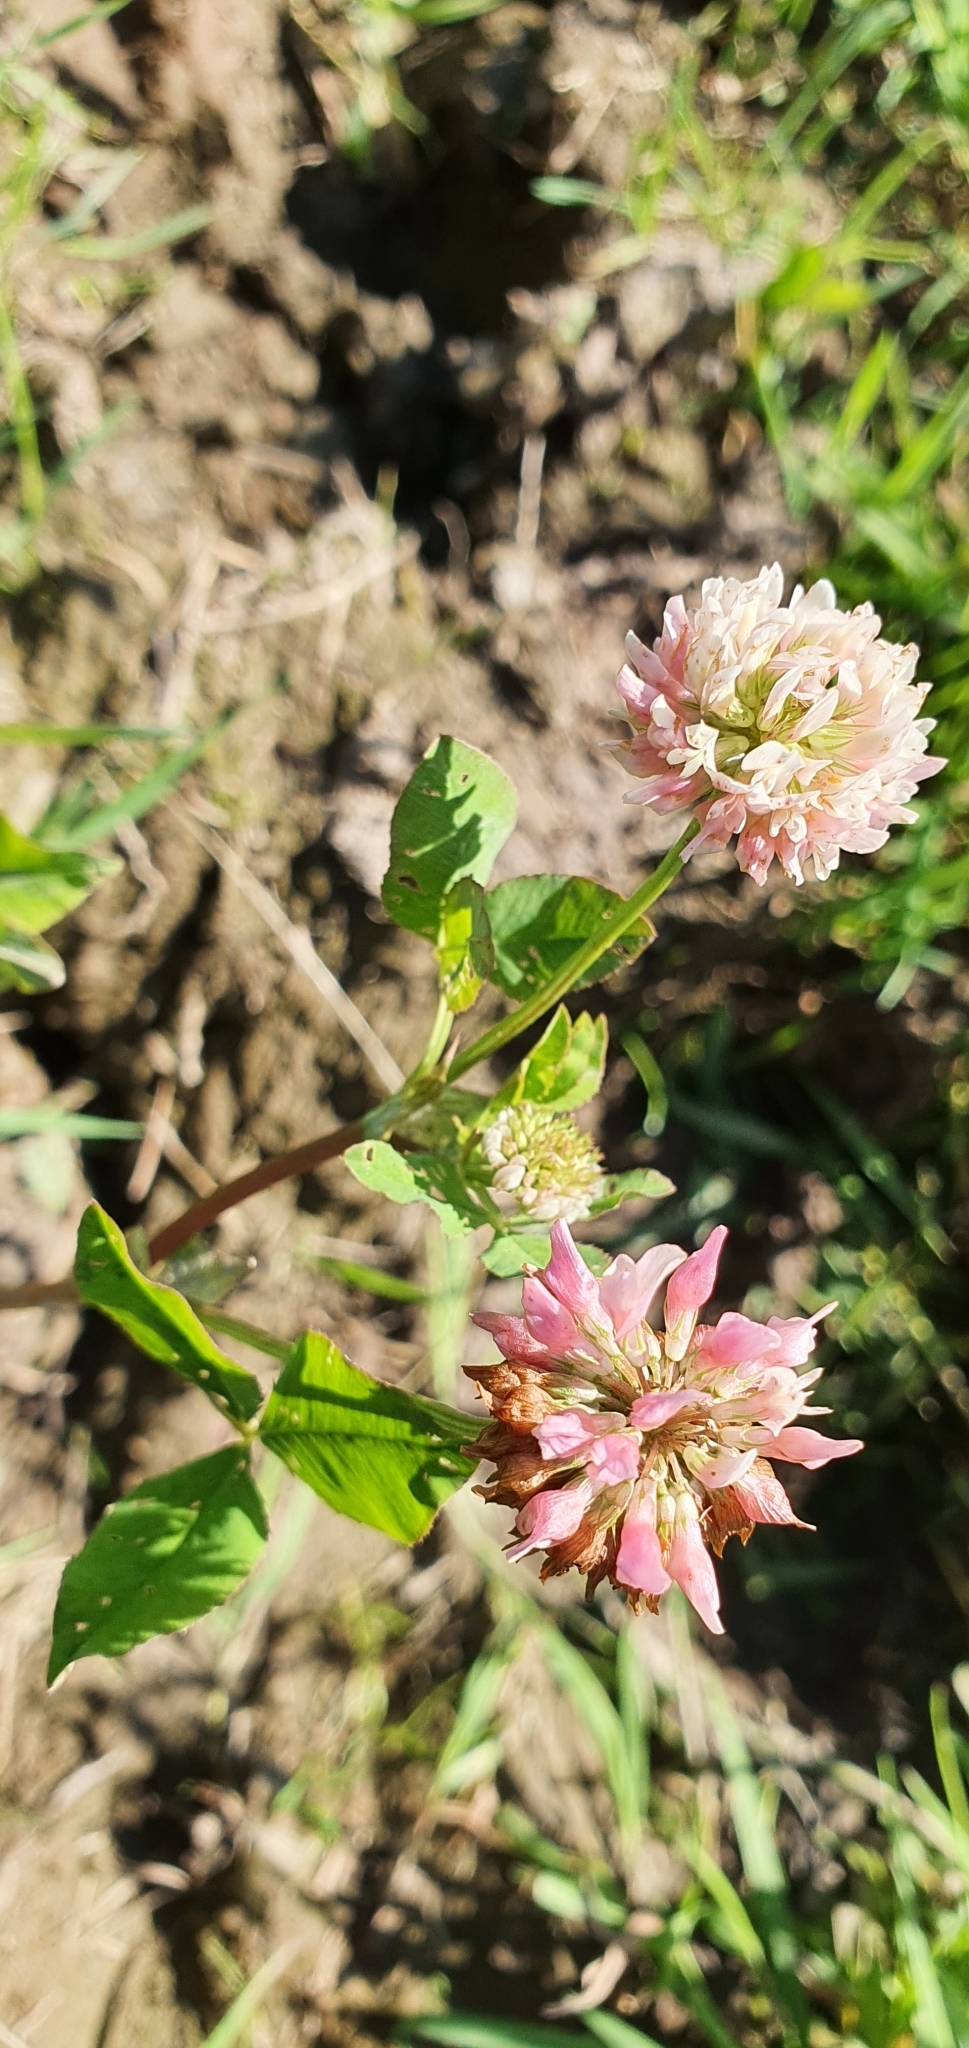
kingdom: Plantae
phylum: Tracheophyta
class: Magnoliopsida
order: Fabales
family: Fabaceae
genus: Trifolium
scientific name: Trifolium hybridum
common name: Alsike clover
